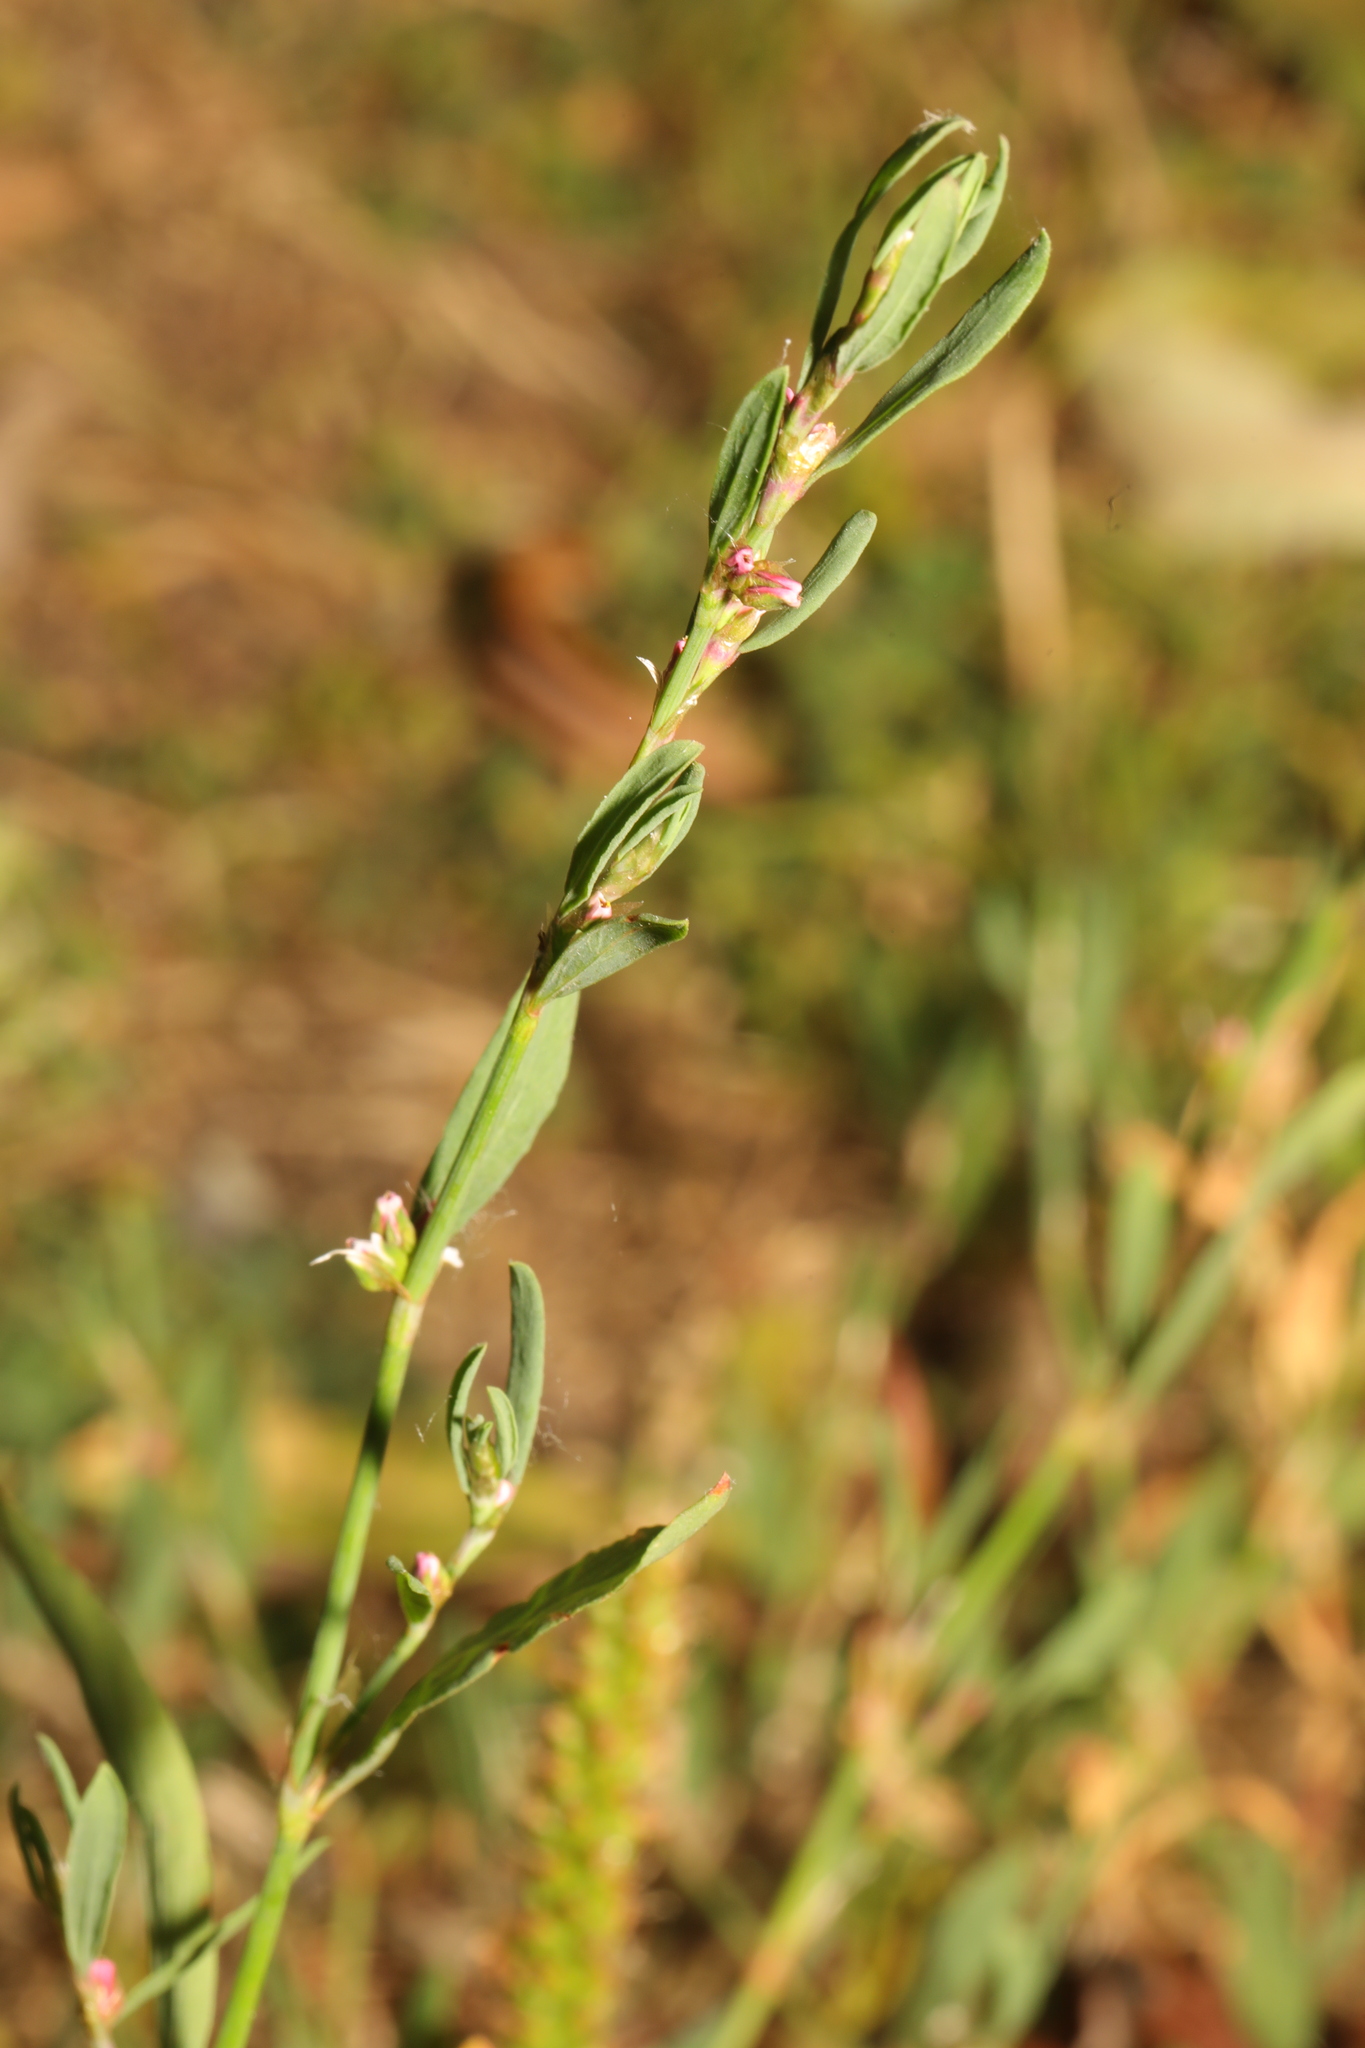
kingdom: Plantae
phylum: Tracheophyta
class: Magnoliopsida
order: Caryophyllales
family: Polygonaceae
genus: Polygonum
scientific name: Polygonum aviculare
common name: Prostrate knotweed
